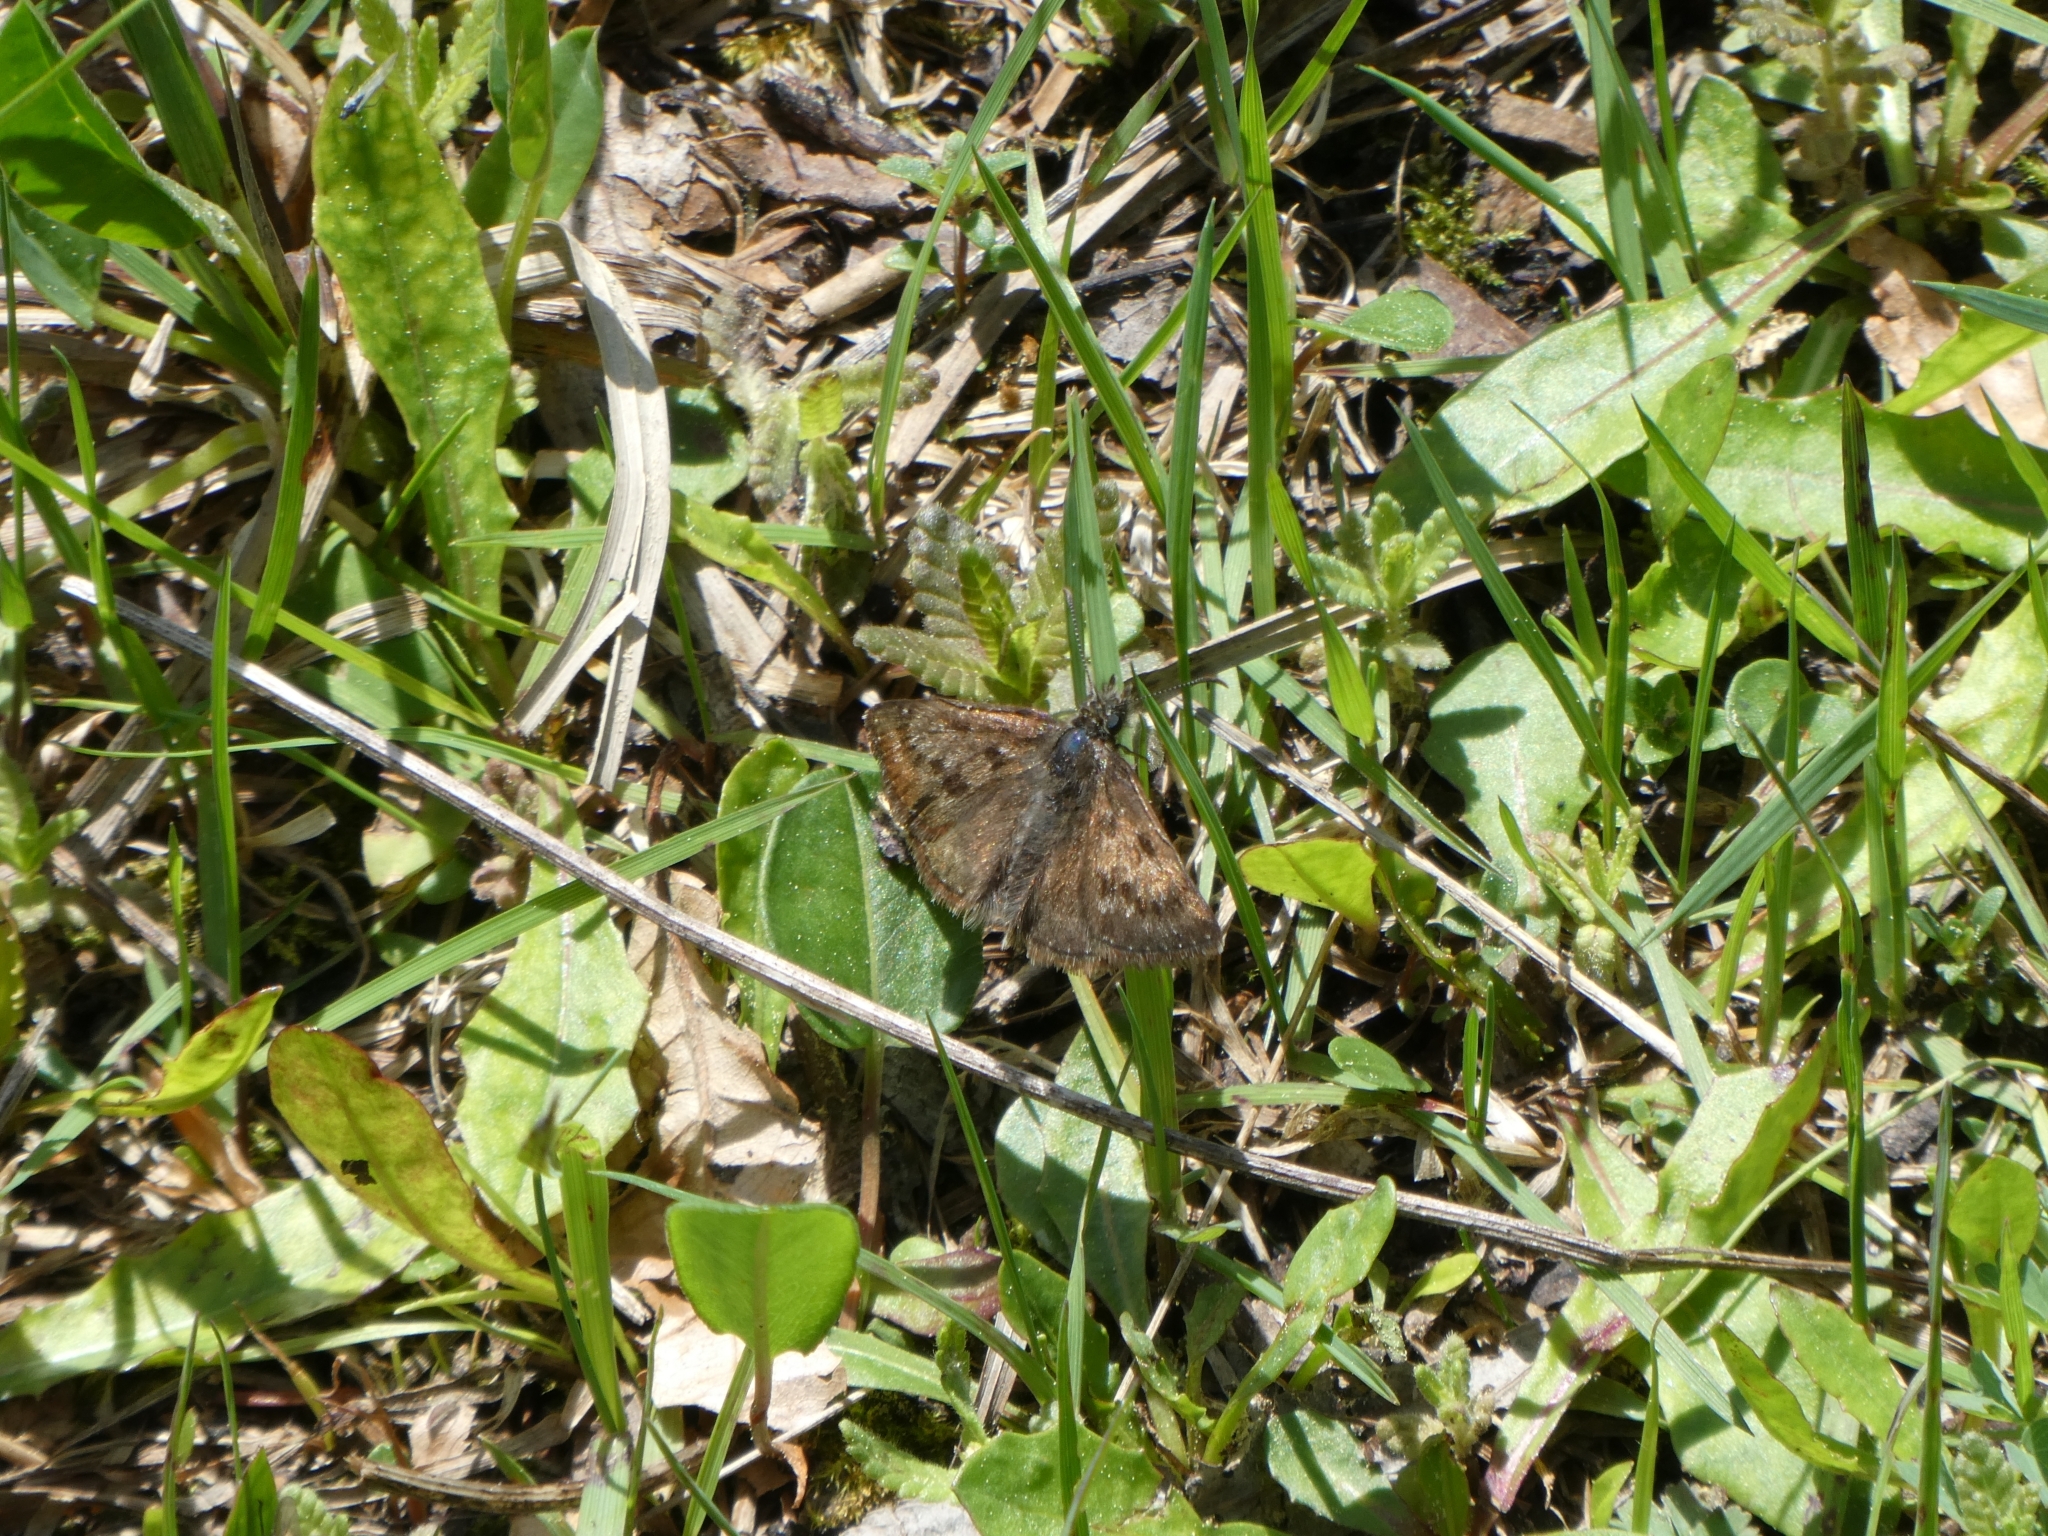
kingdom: Animalia
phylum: Arthropoda
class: Insecta
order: Lepidoptera
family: Hesperiidae
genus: Erynnis
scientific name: Erynnis tages
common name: Dingy skipper
